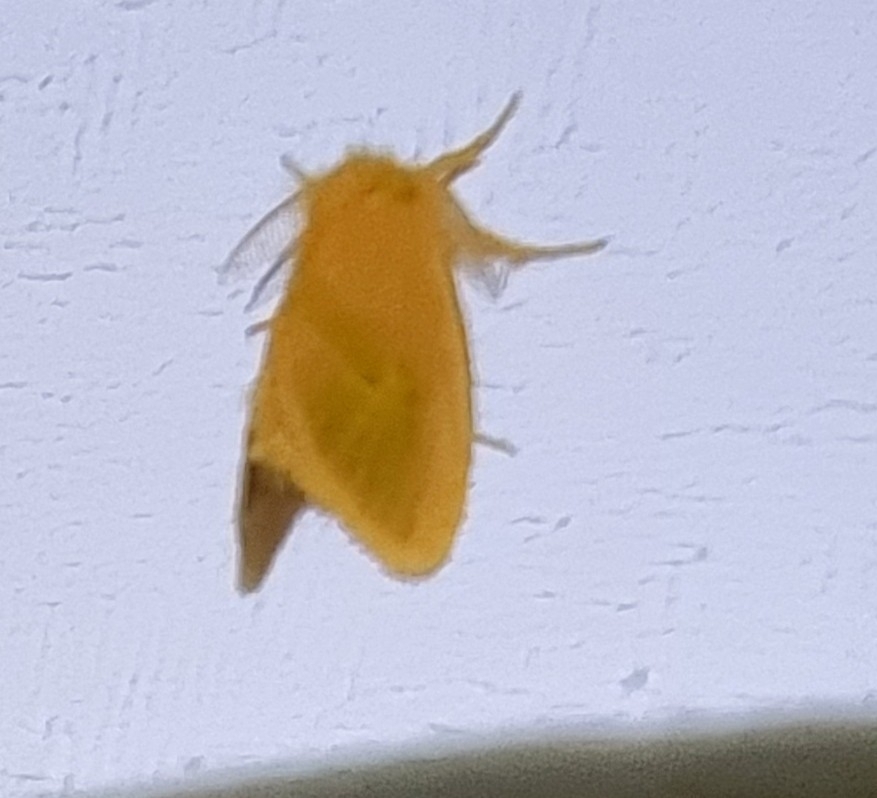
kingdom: Animalia
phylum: Arthropoda
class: Insecta
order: Lepidoptera
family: Erebidae
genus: Euproctis
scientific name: Euproctis lutea
